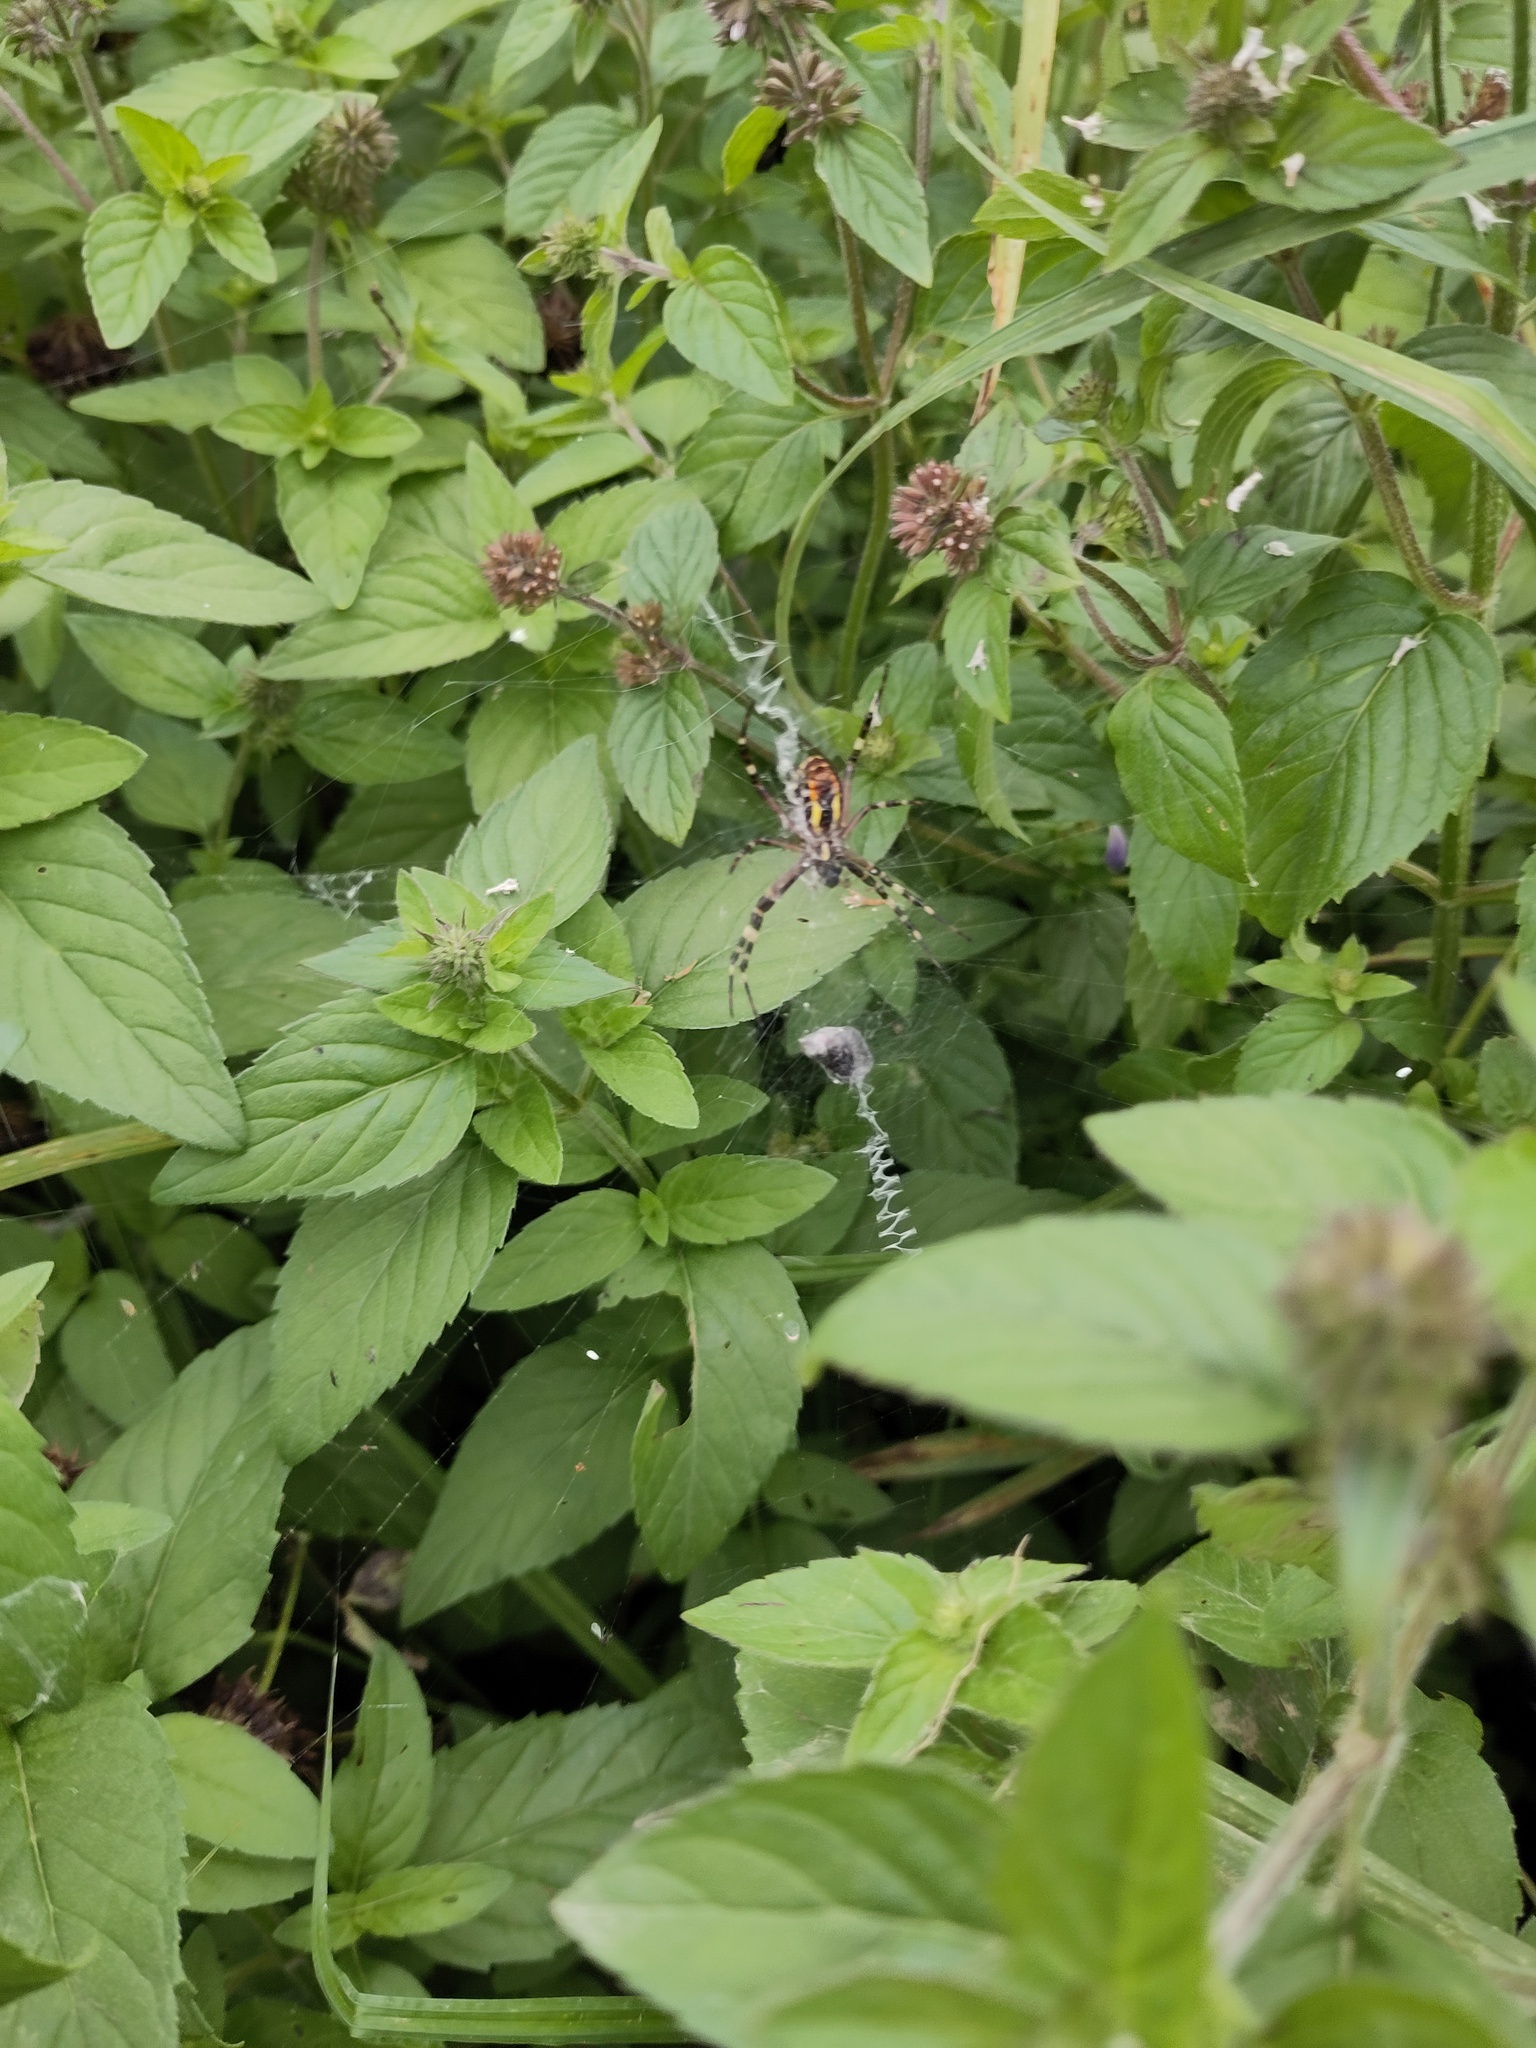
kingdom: Animalia
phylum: Arthropoda
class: Arachnida
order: Araneae
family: Araneidae
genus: Argiope
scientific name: Argiope bruennichi
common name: Wasp spider
